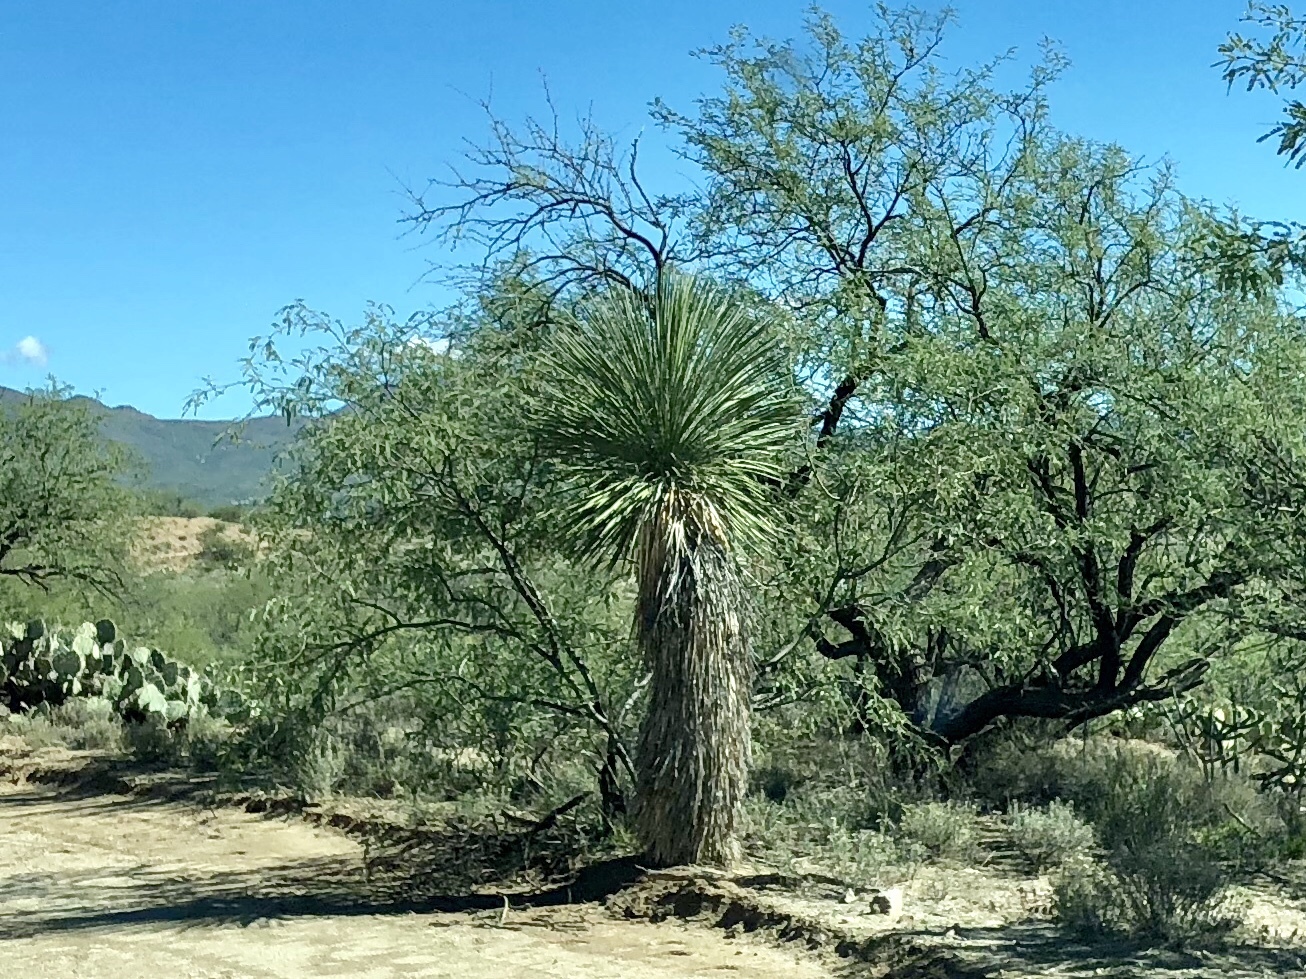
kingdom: Plantae
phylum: Tracheophyta
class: Liliopsida
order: Asparagales
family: Asparagaceae
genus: Yucca
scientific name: Yucca elata
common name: Palmella
